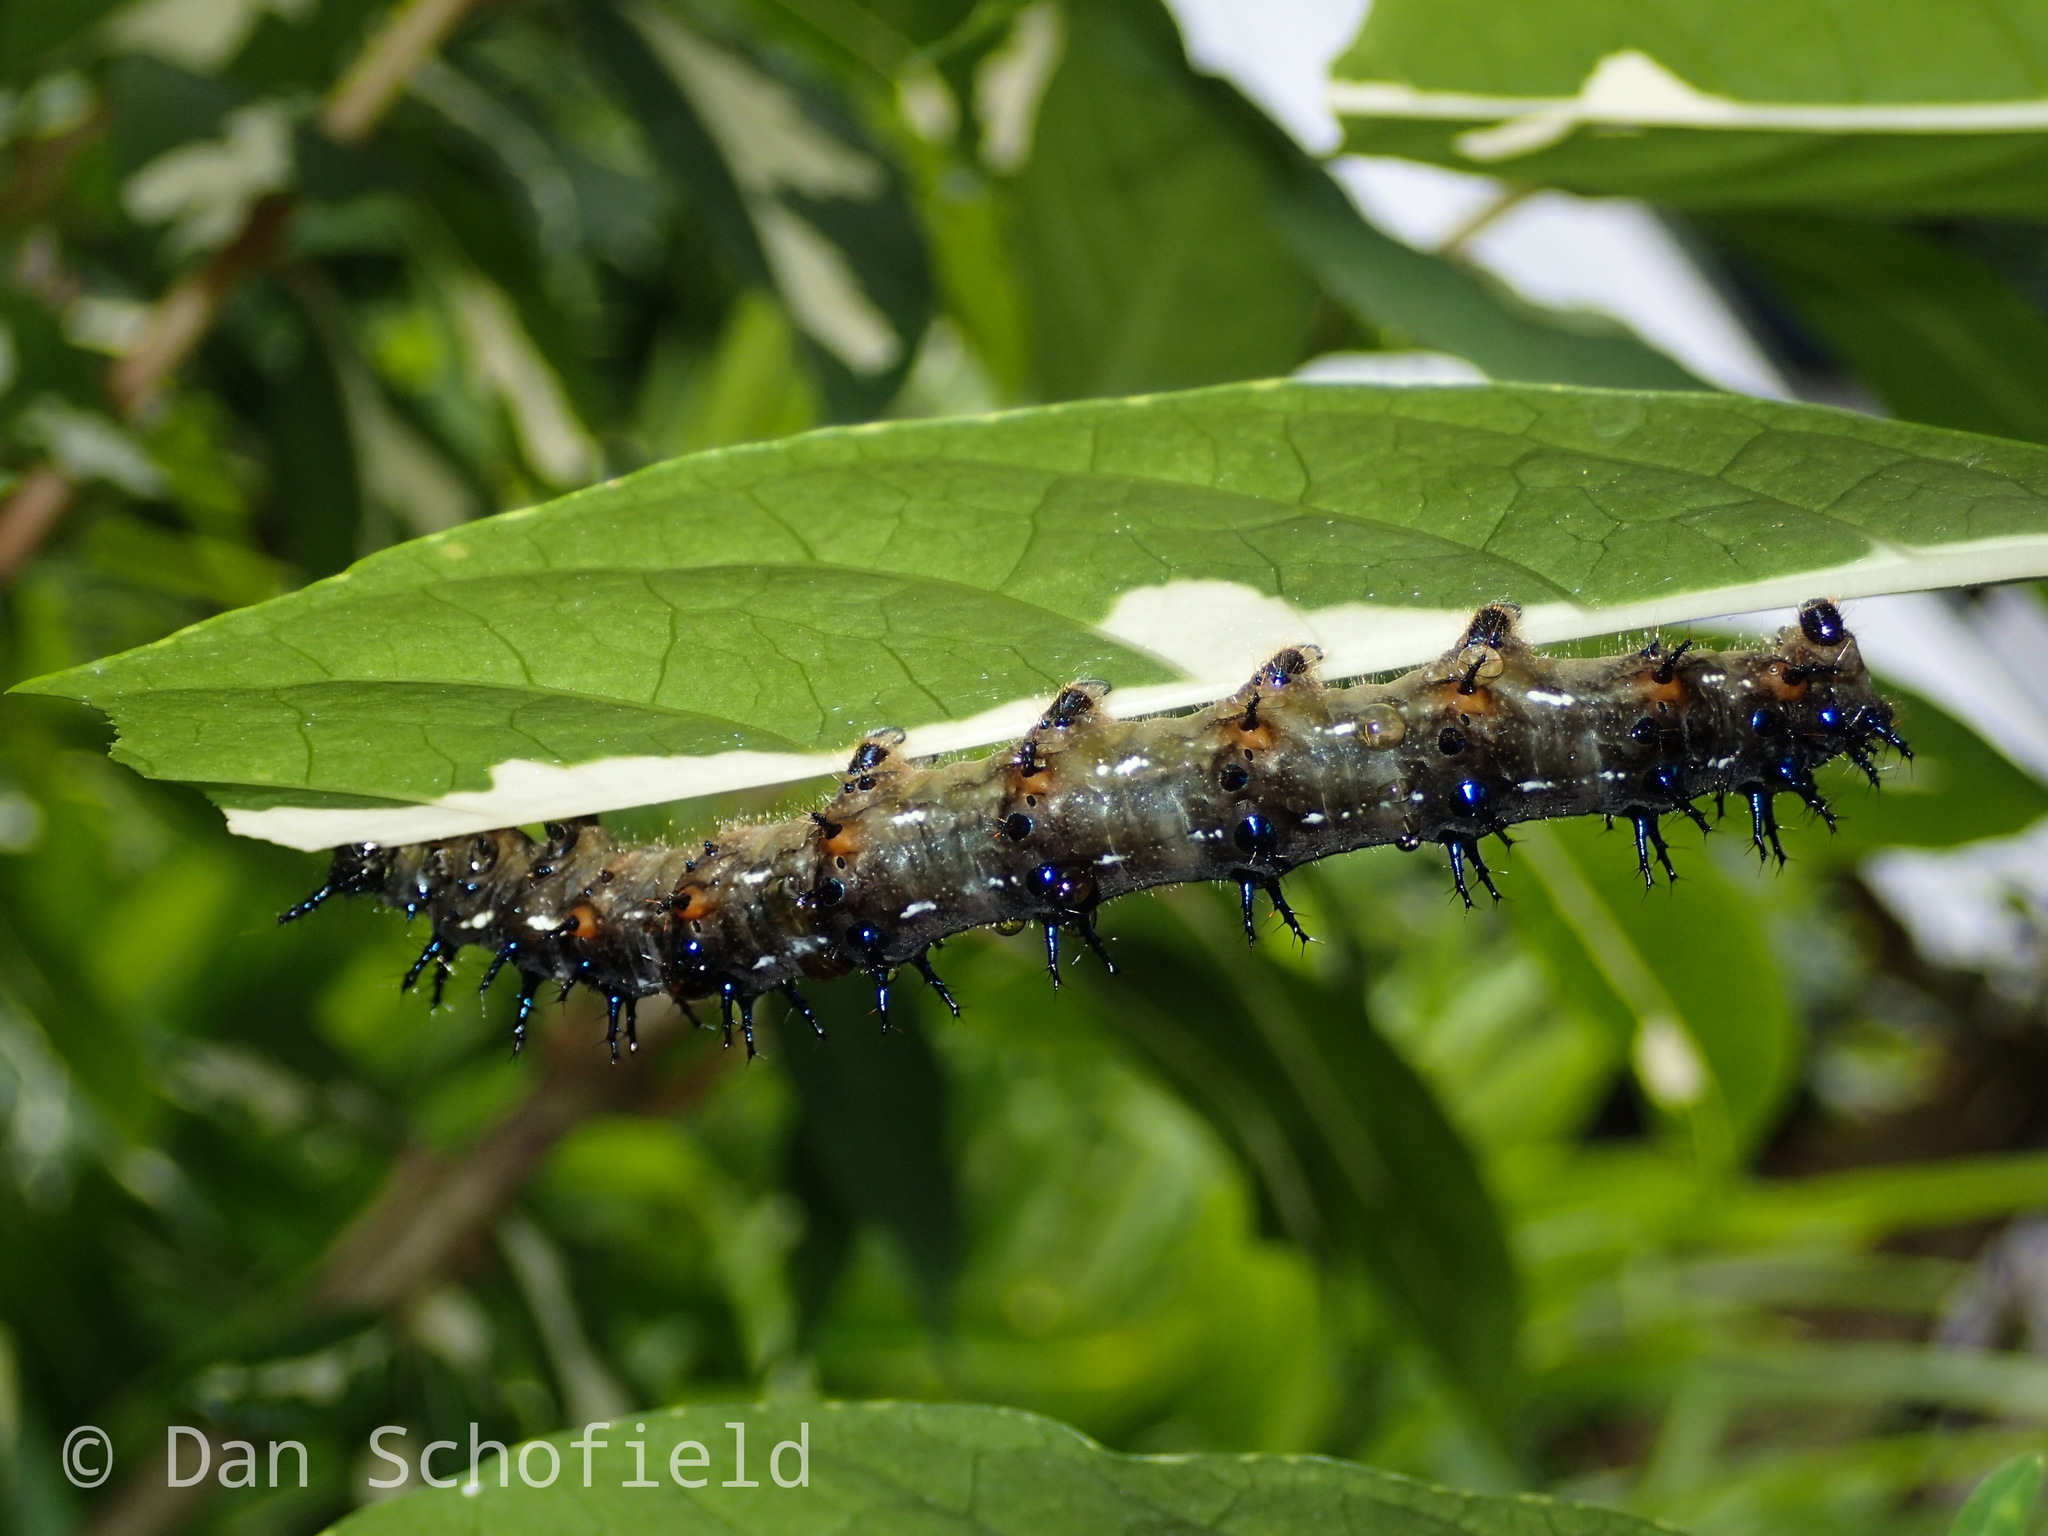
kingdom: Animalia
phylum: Arthropoda
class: Insecta
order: Lepidoptera
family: Nymphalidae
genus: Doleschallia
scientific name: Doleschallia bisaltide
